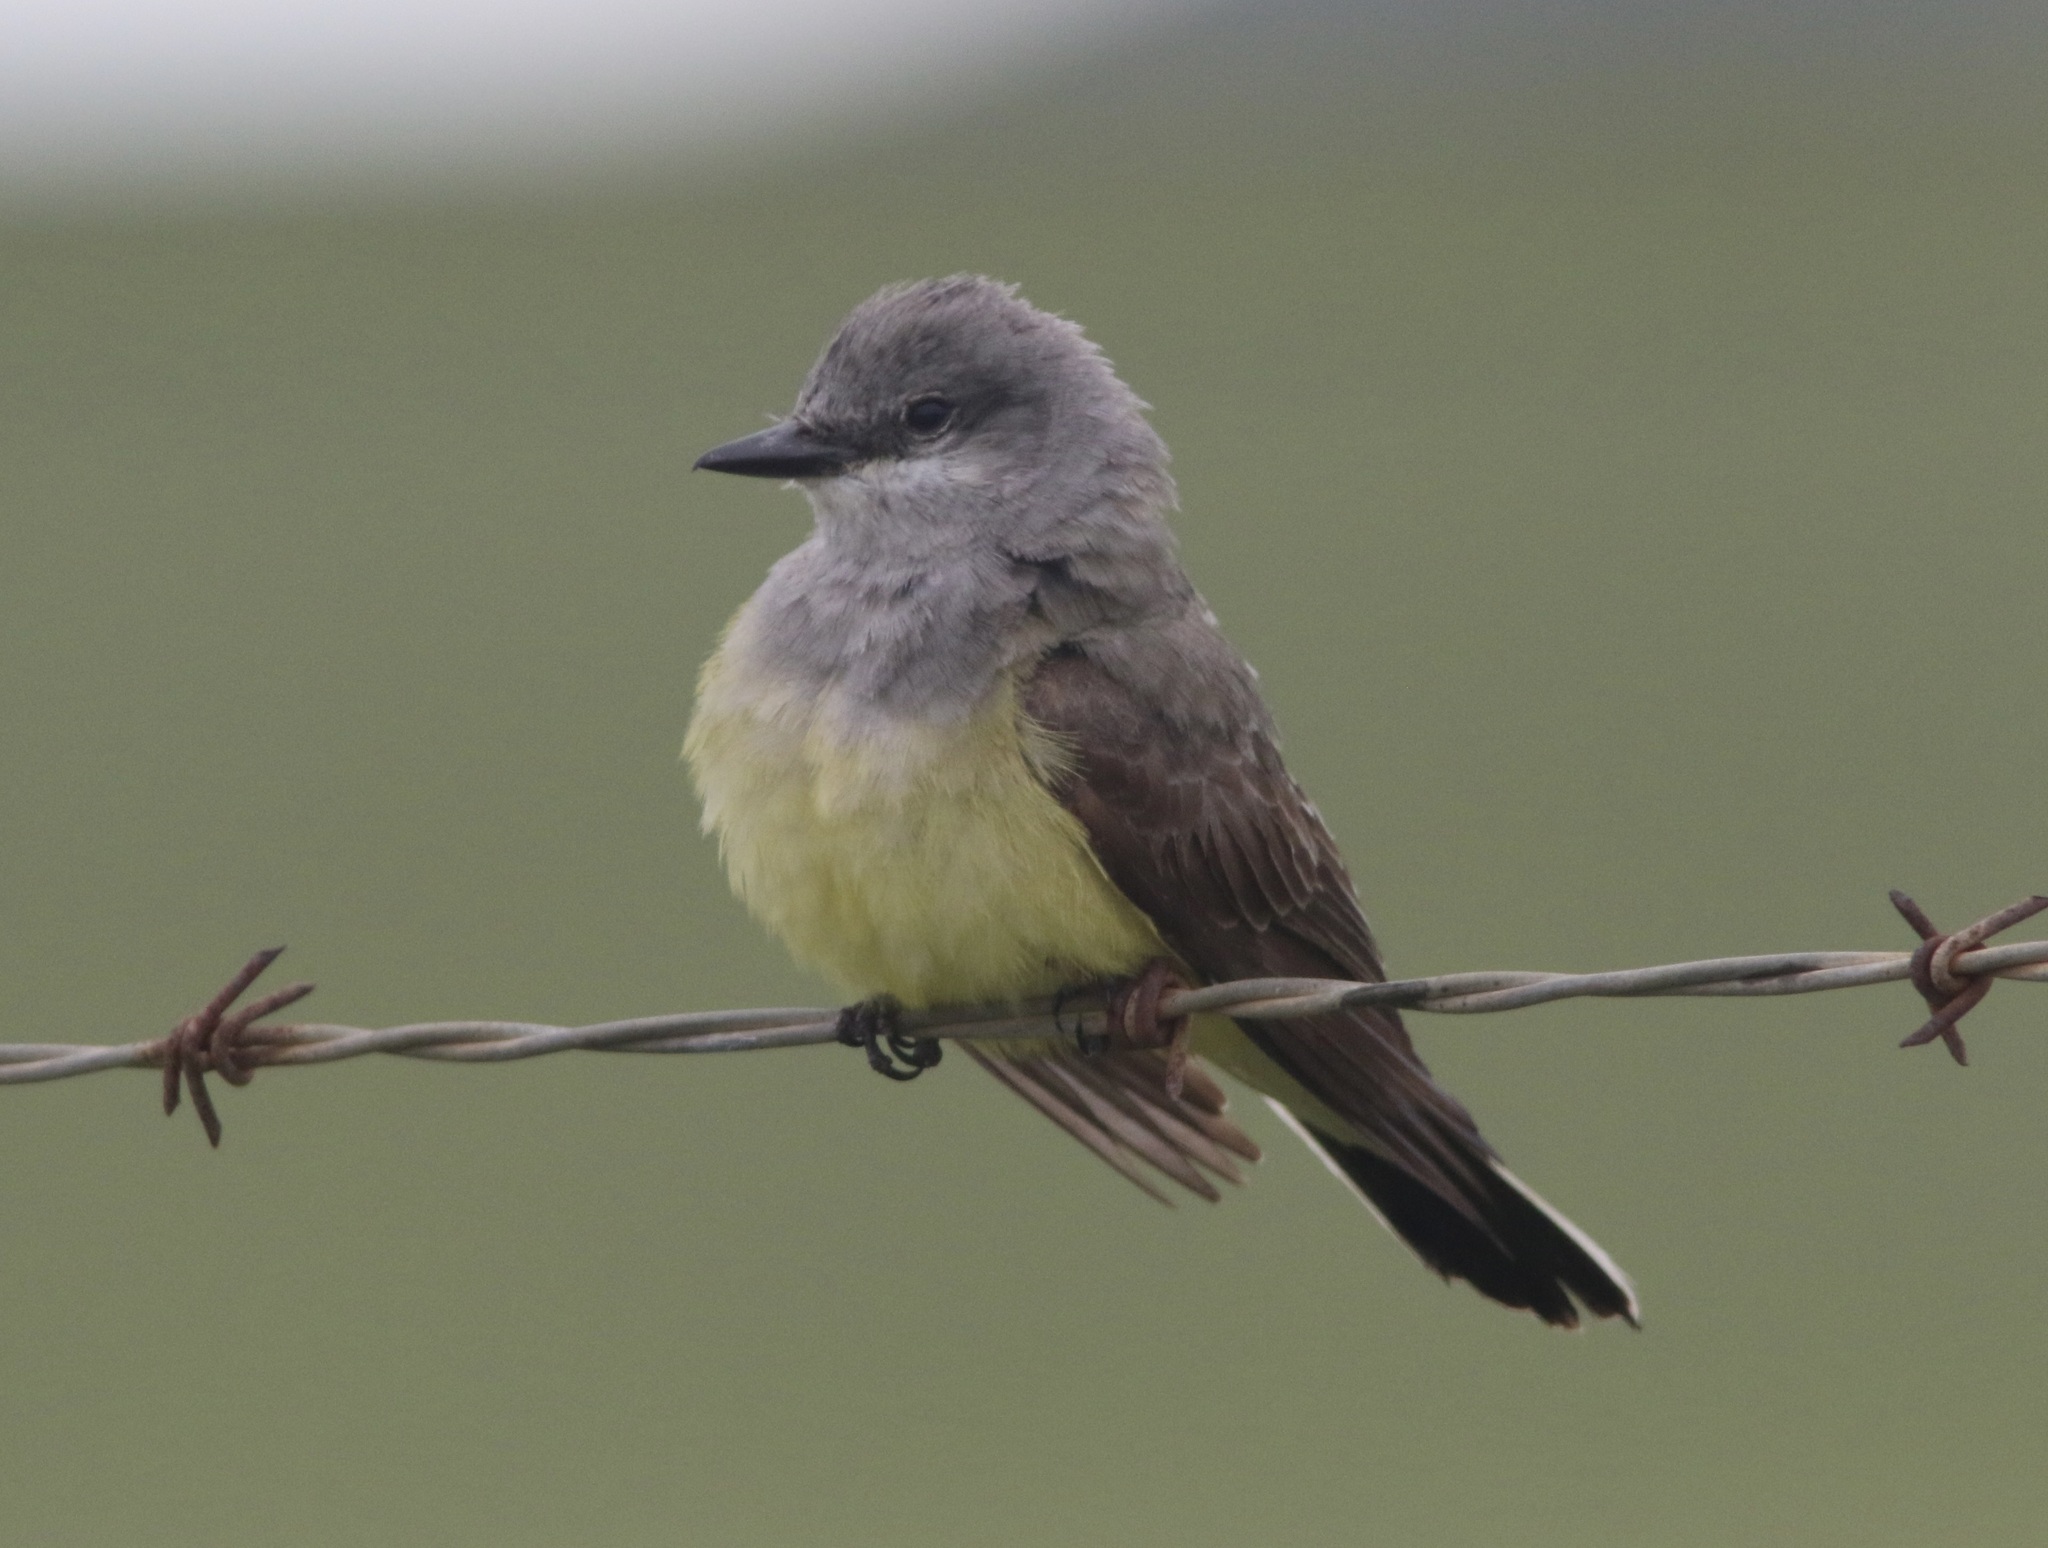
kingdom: Animalia
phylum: Chordata
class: Aves
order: Passeriformes
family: Tyrannidae
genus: Tyrannus
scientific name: Tyrannus verticalis
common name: Western kingbird
